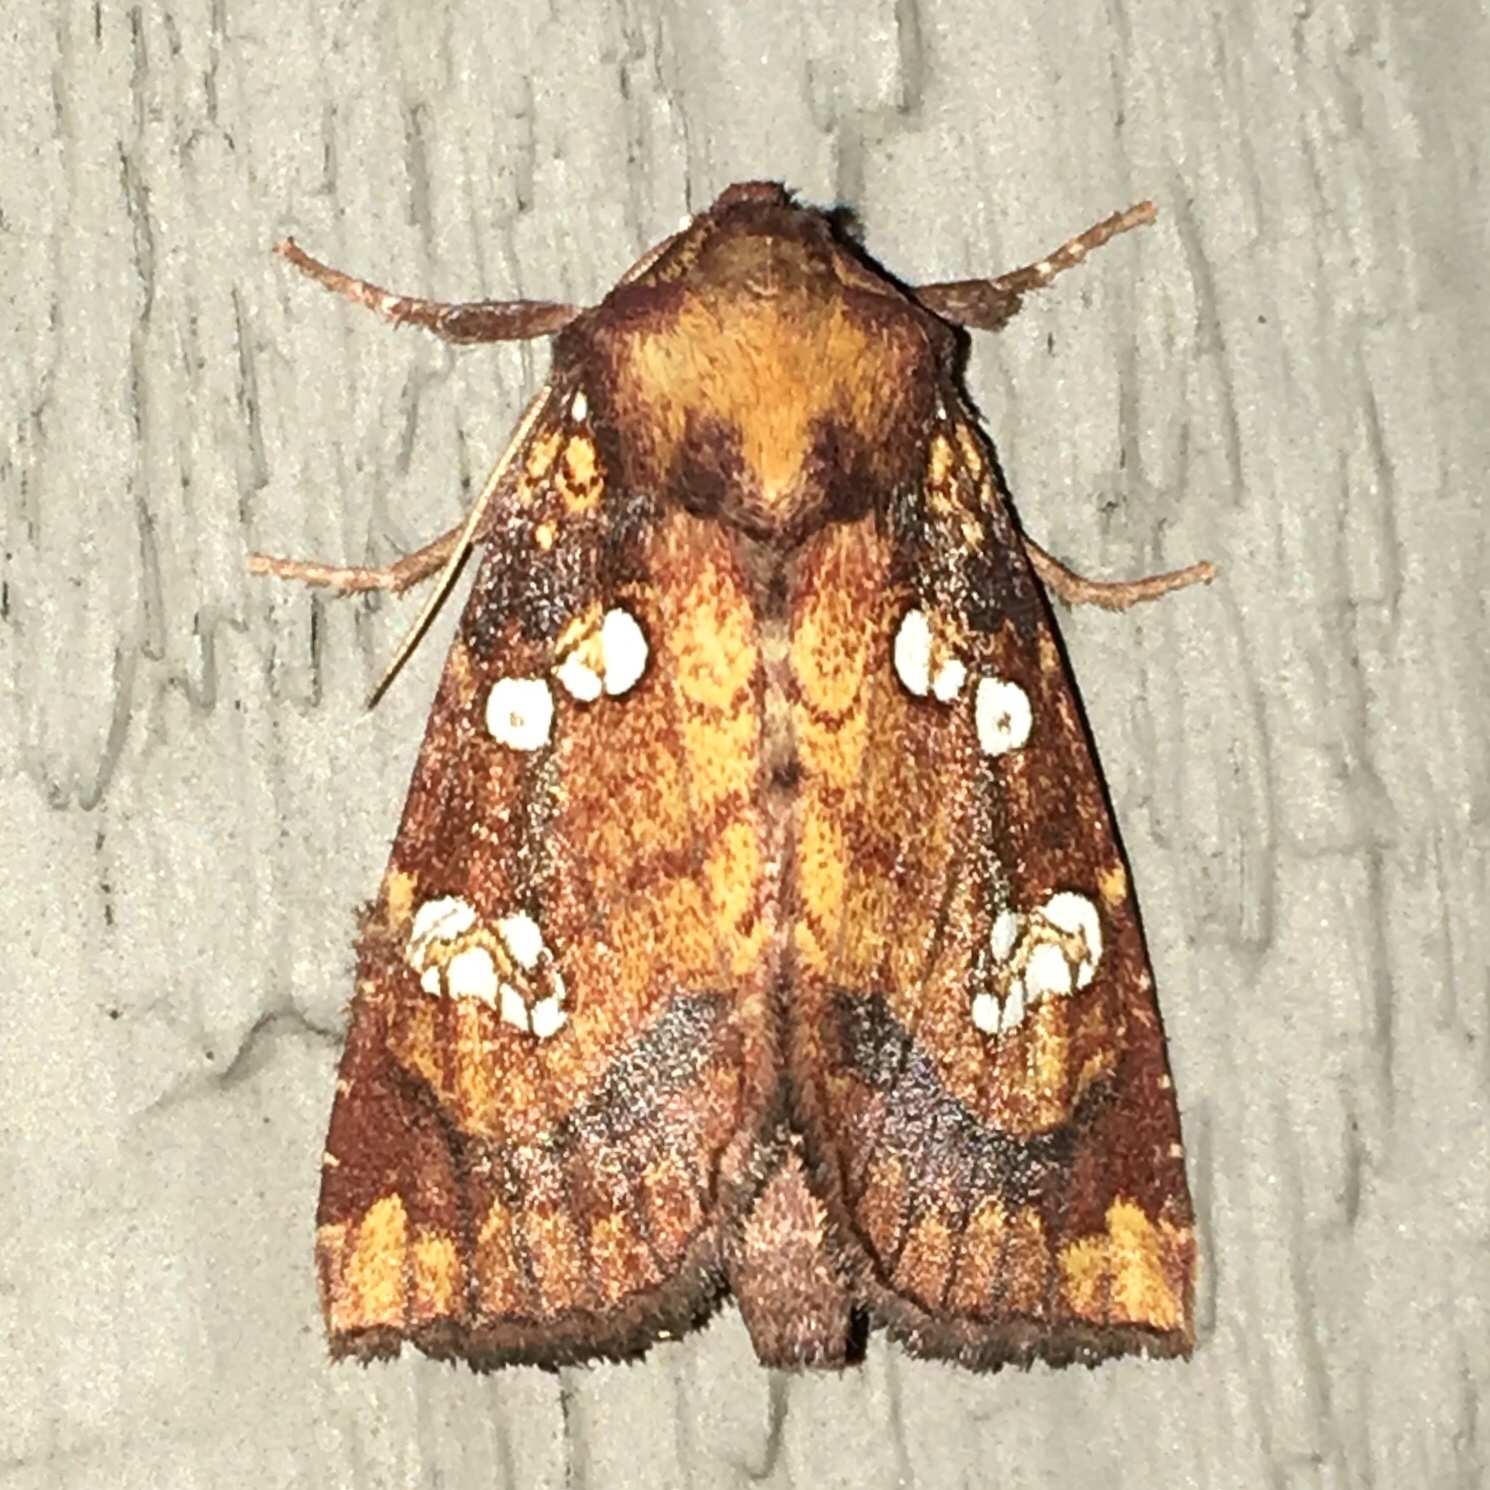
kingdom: Animalia
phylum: Arthropoda
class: Insecta
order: Lepidoptera
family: Noctuidae
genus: Papaipema
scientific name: Papaipema baptisiae
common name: Wild indigo borer moth
